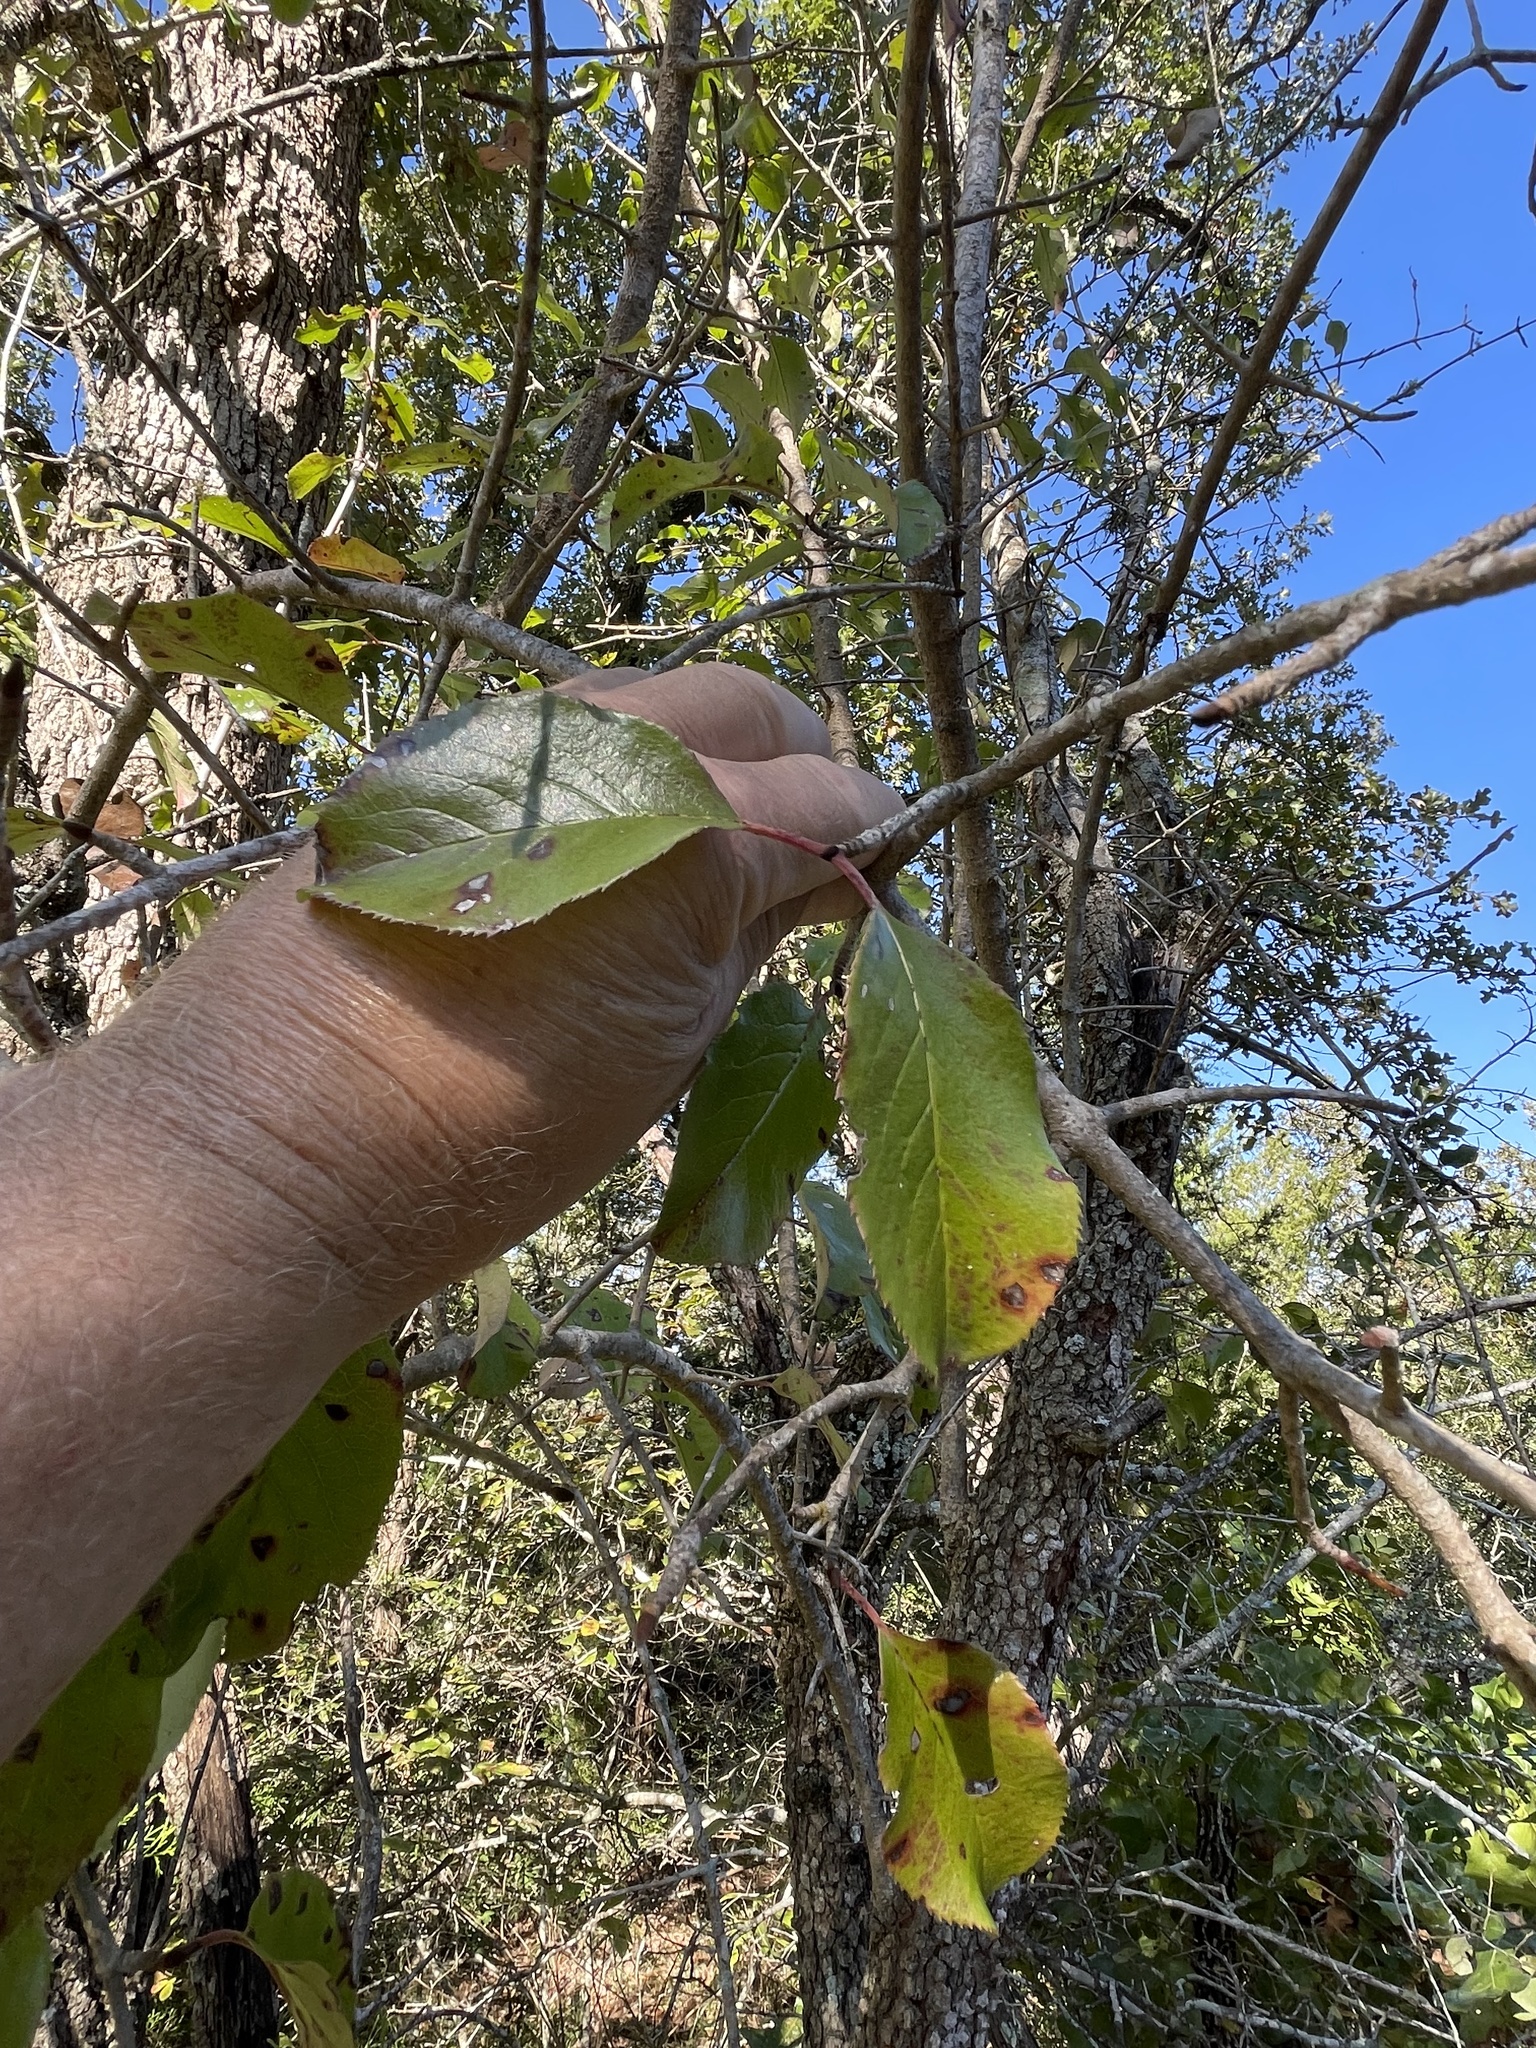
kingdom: Plantae
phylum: Tracheophyta
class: Magnoliopsida
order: Dipsacales
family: Viburnaceae
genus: Viburnum
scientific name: Viburnum rufidulum
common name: Blue haw
